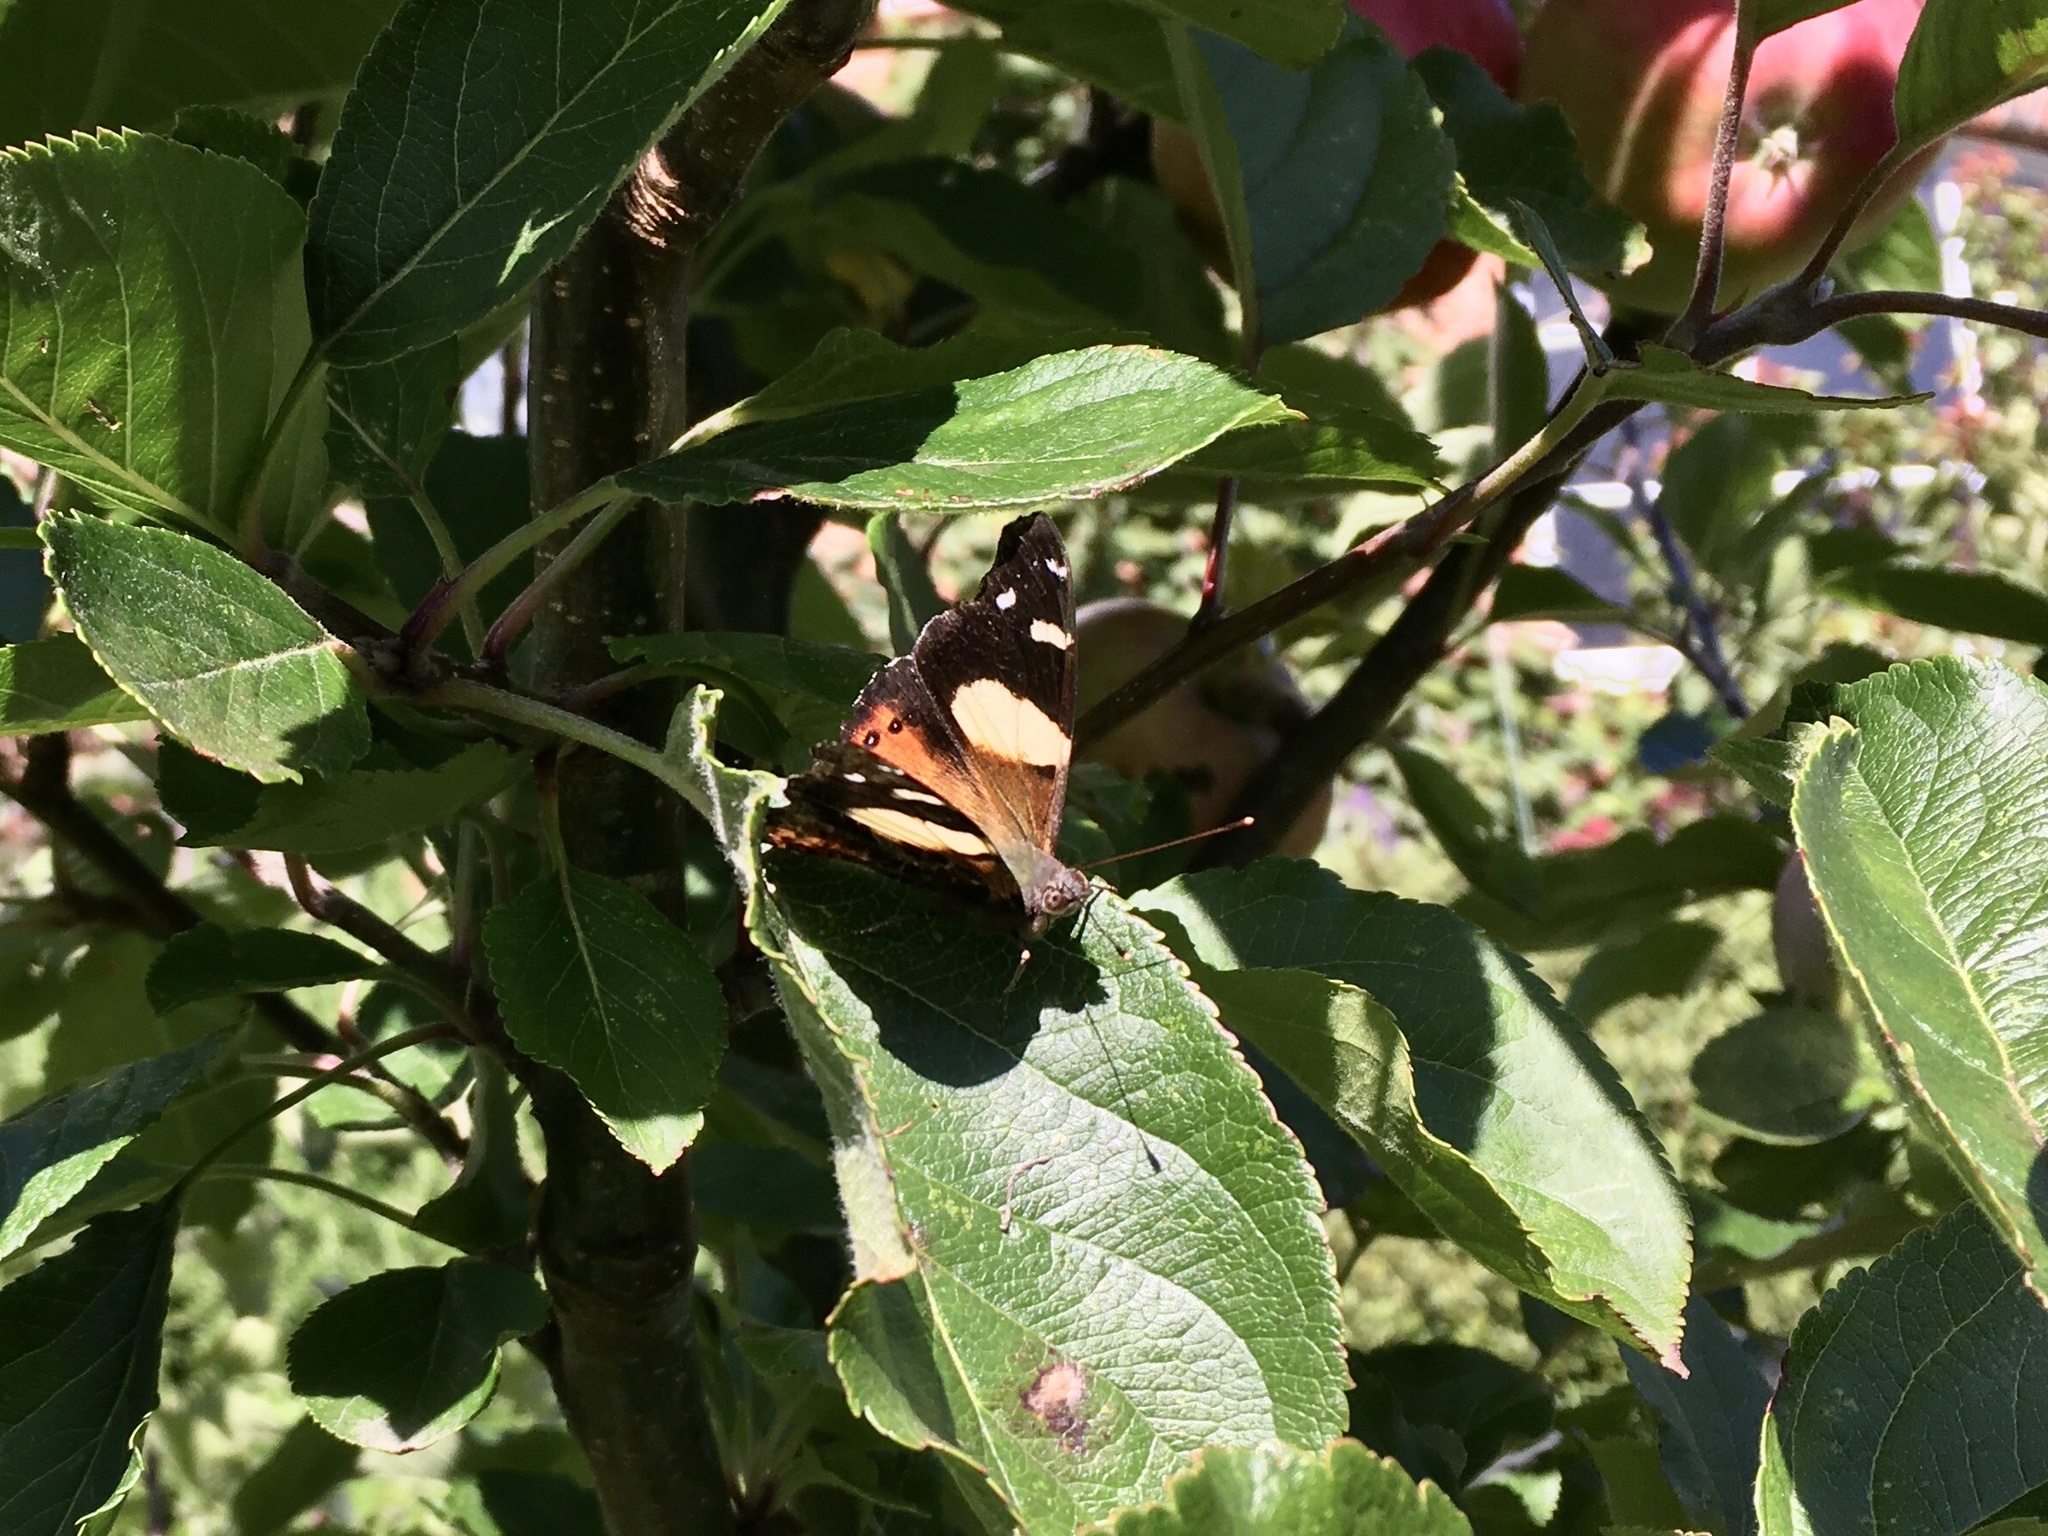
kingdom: Animalia
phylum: Arthropoda
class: Insecta
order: Lepidoptera
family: Nymphalidae
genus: Vanessa
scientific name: Vanessa itea
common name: Yellow admiral
